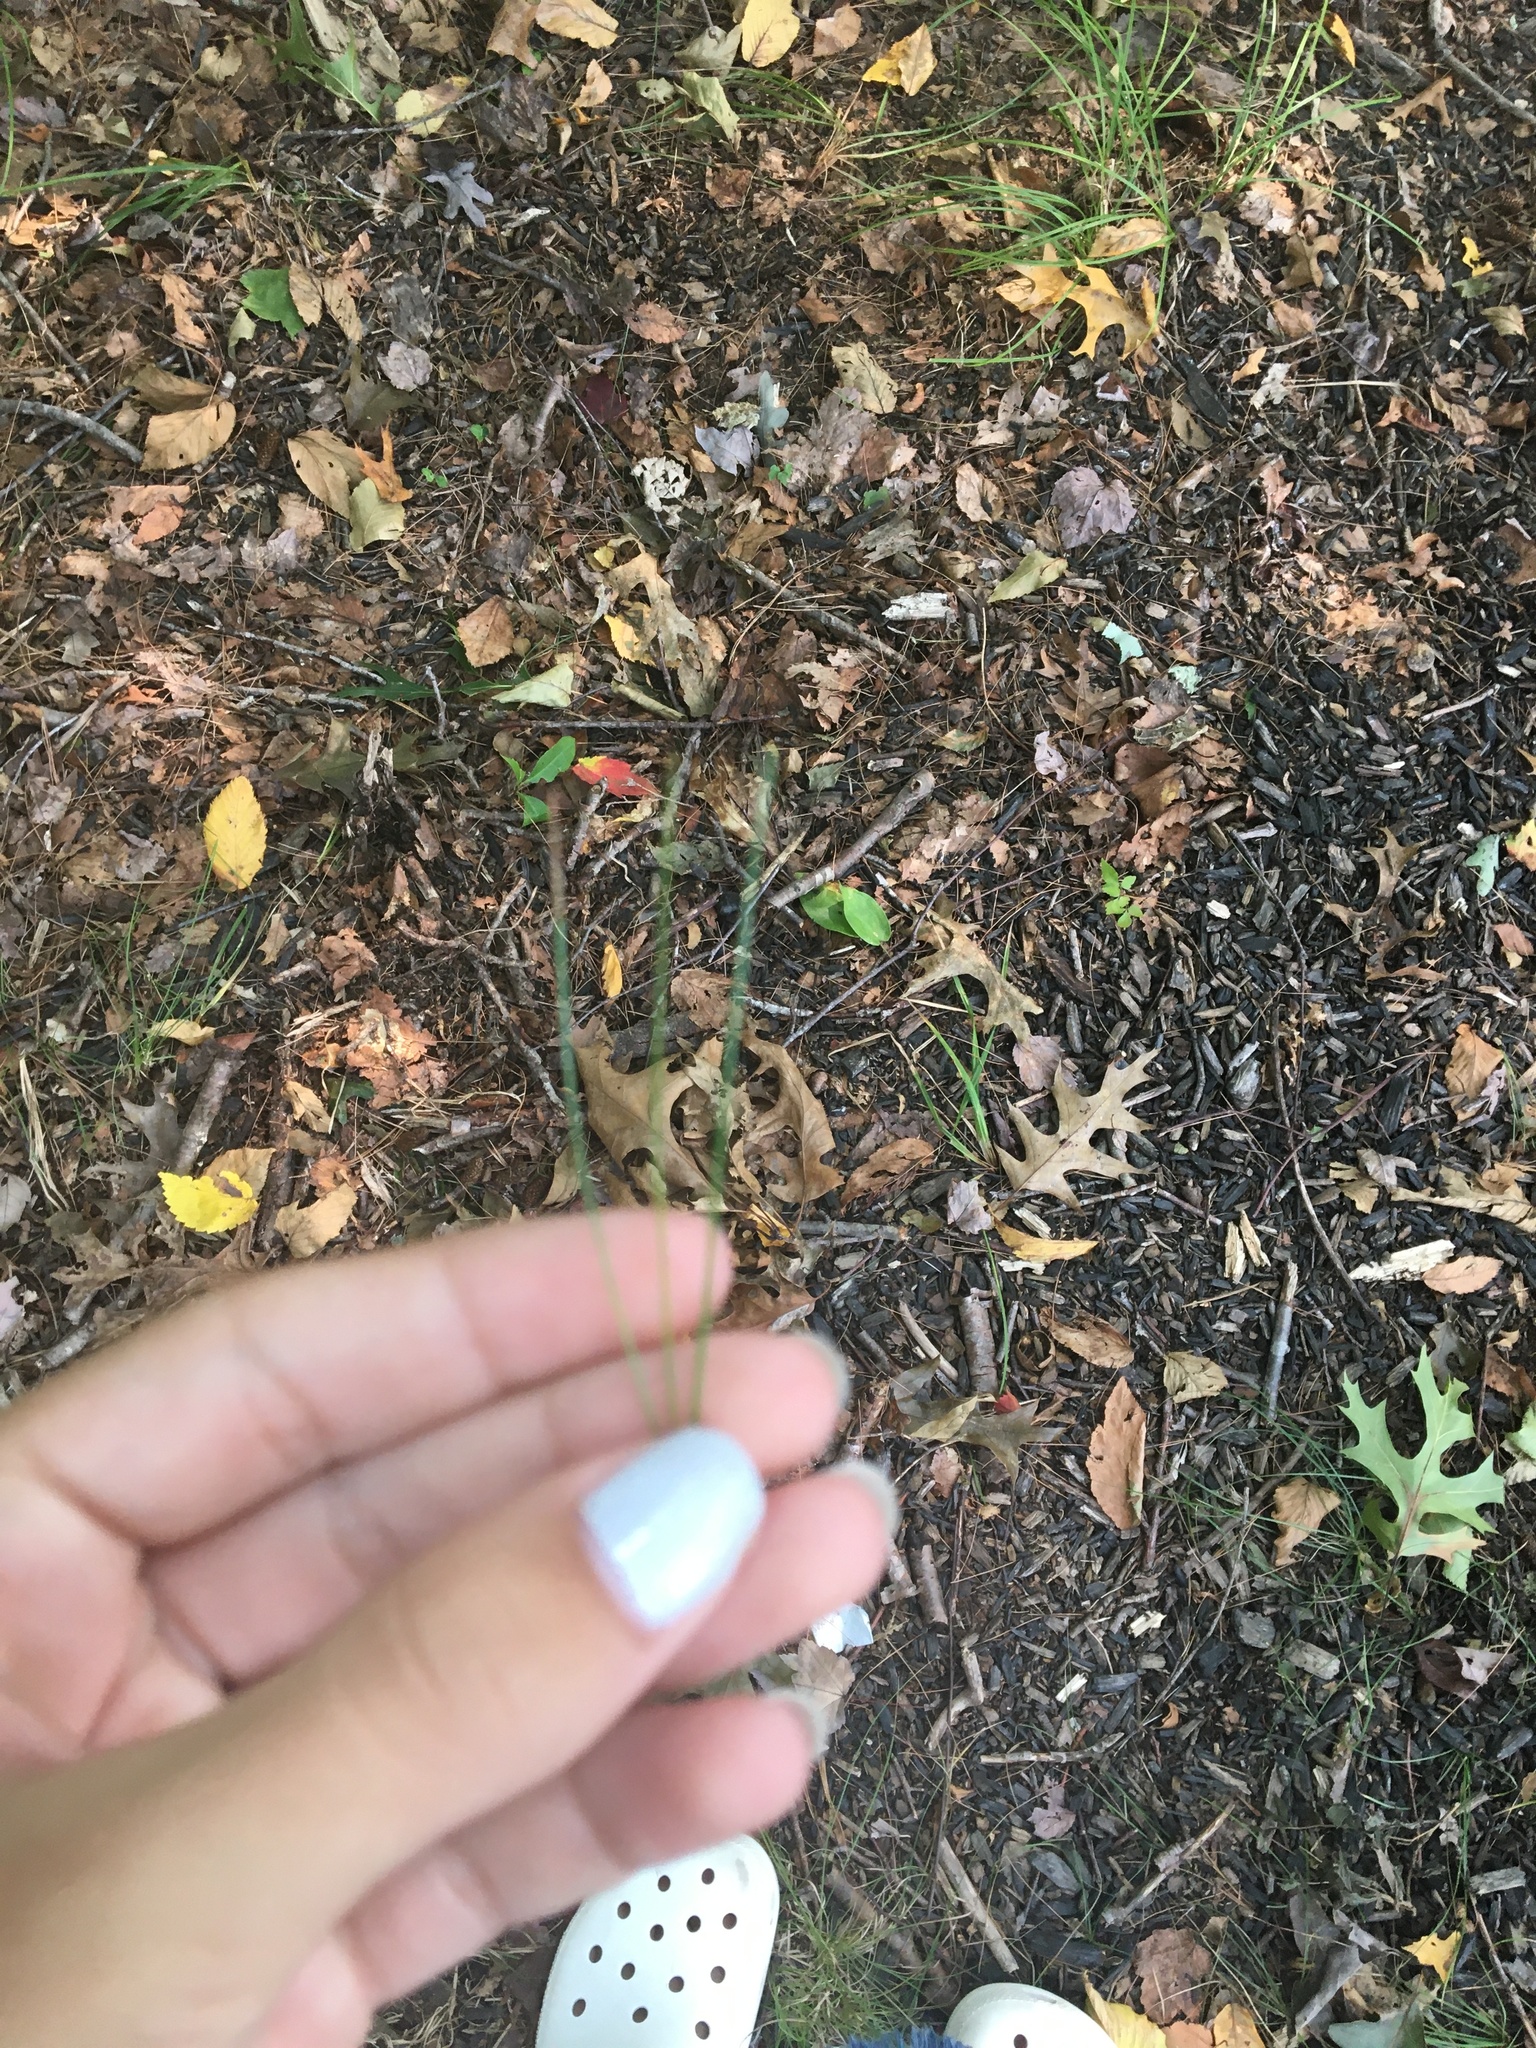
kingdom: Plantae
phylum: Tracheophyta
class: Pinopsida
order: Pinales
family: Pinaceae
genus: Pinus
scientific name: Pinus strobus
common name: Weymouth pine
